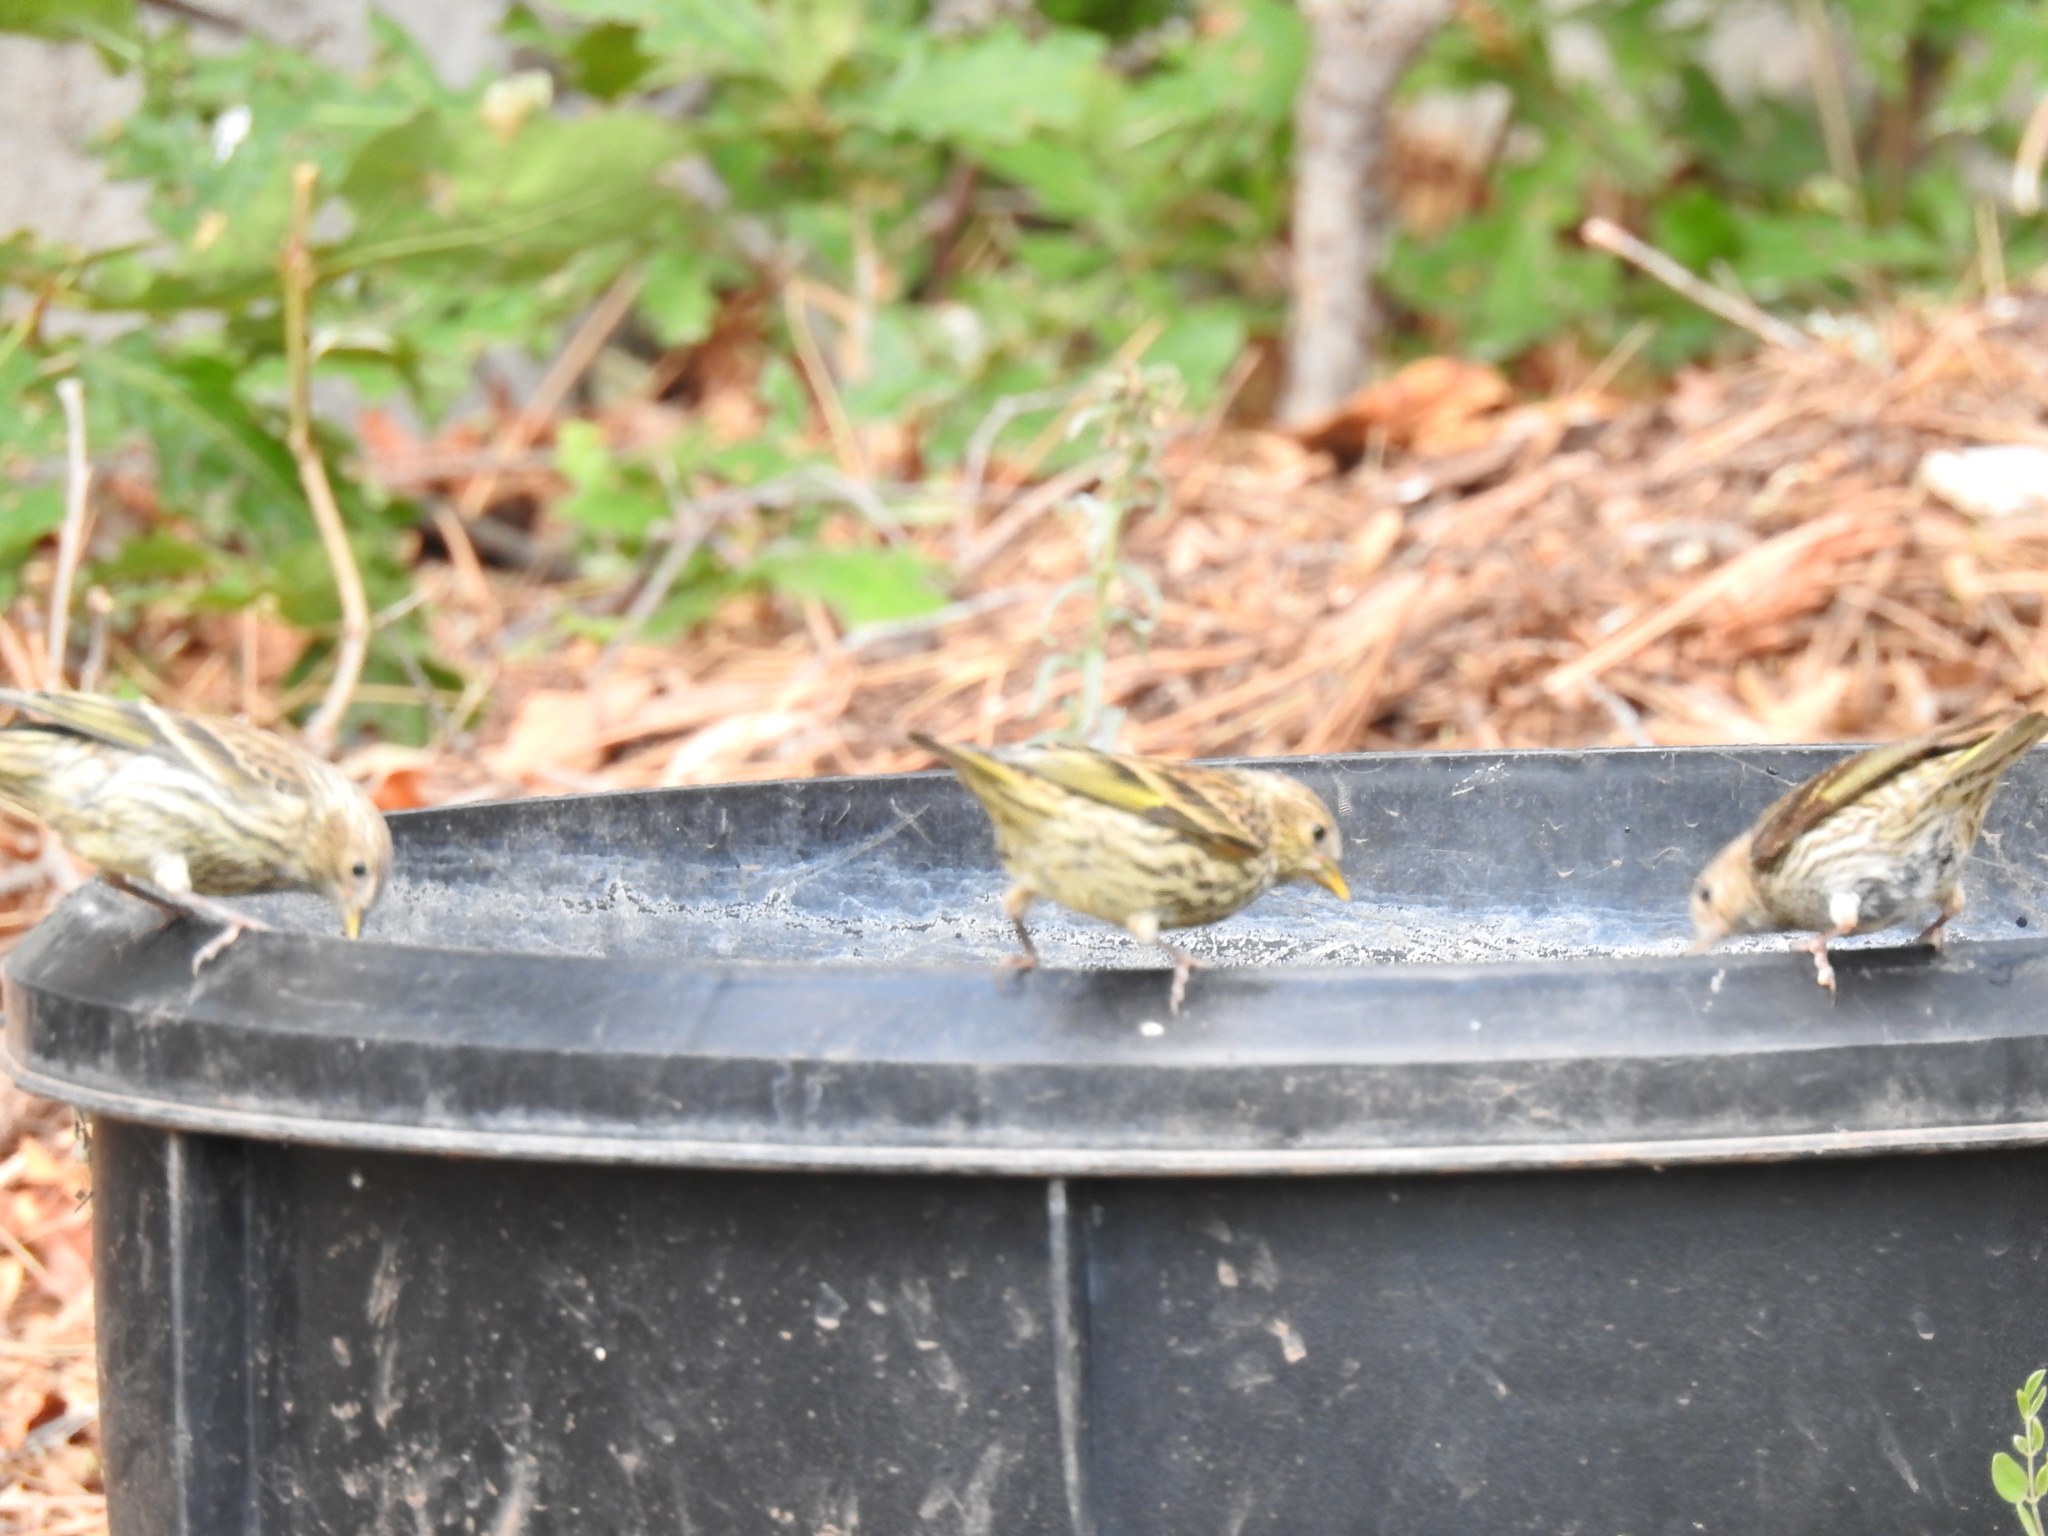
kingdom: Animalia
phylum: Chordata
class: Aves
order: Passeriformes
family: Fringillidae
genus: Spinus
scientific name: Spinus pinus
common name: Pine siskin
